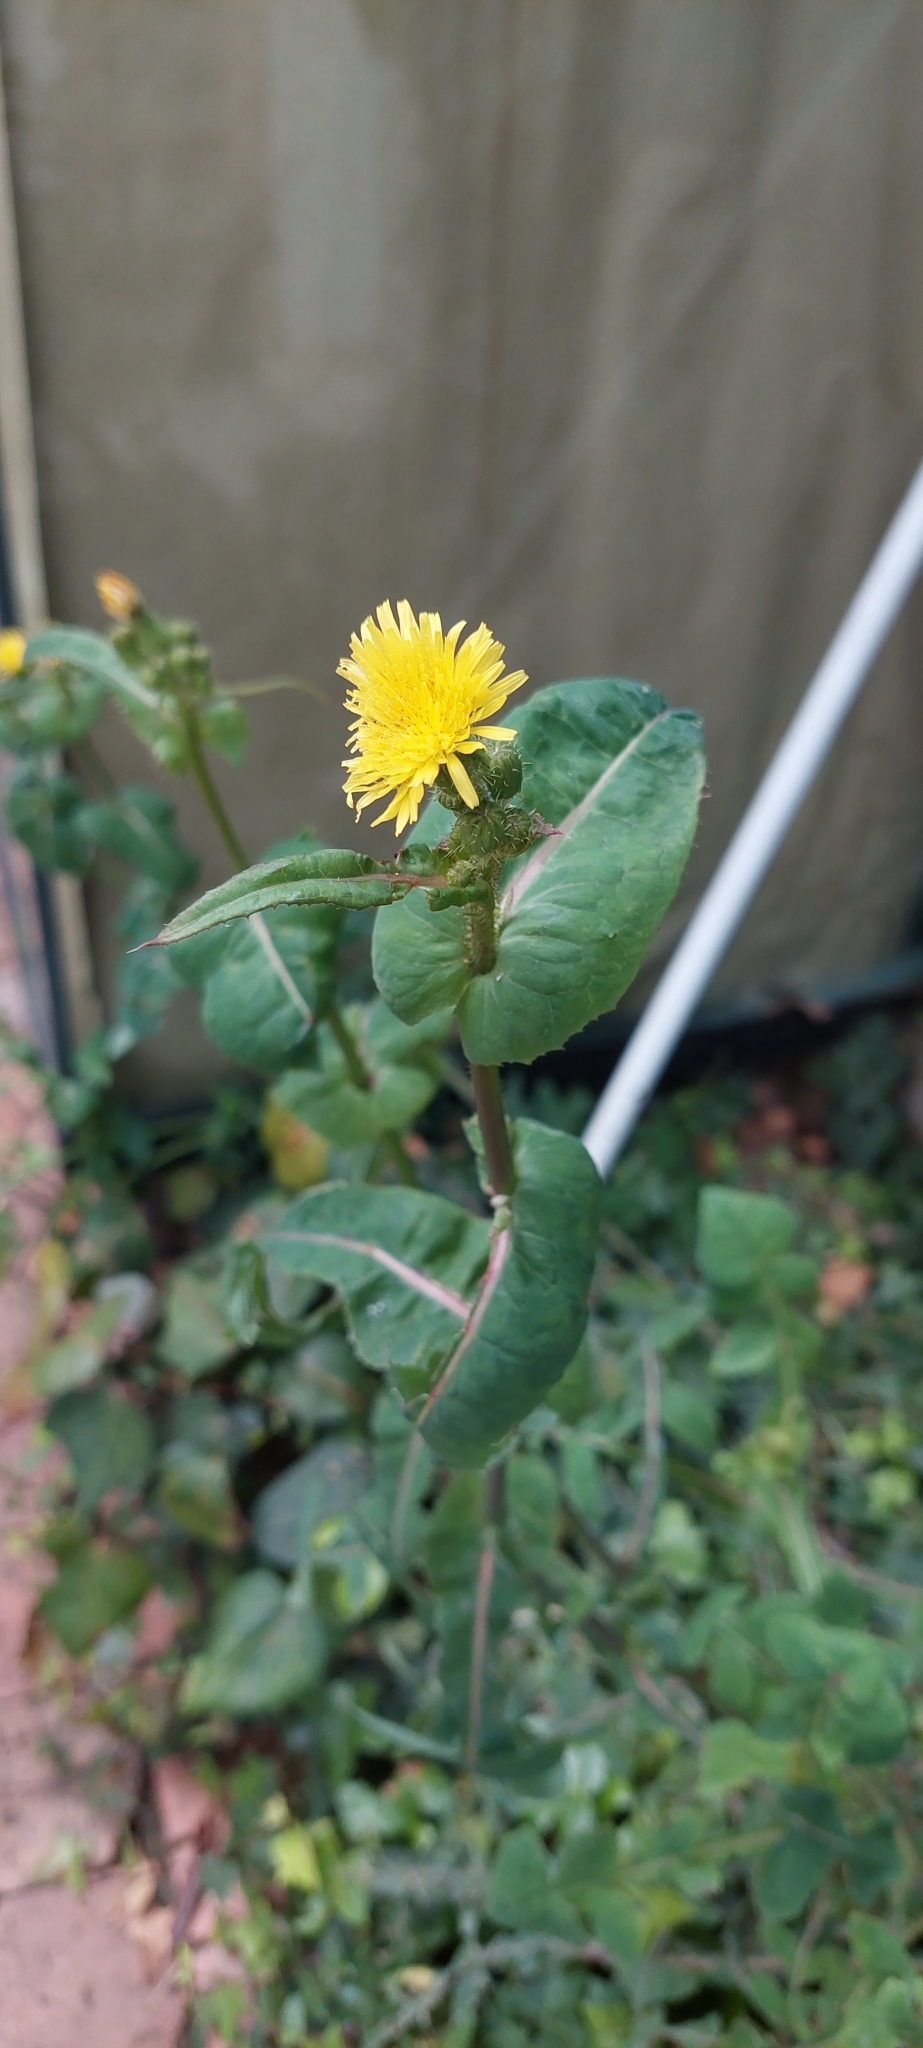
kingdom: Plantae
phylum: Tracheophyta
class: Magnoliopsida
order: Asterales
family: Asteraceae
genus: Sonchus
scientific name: Sonchus oleraceus
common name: Common sowthistle
